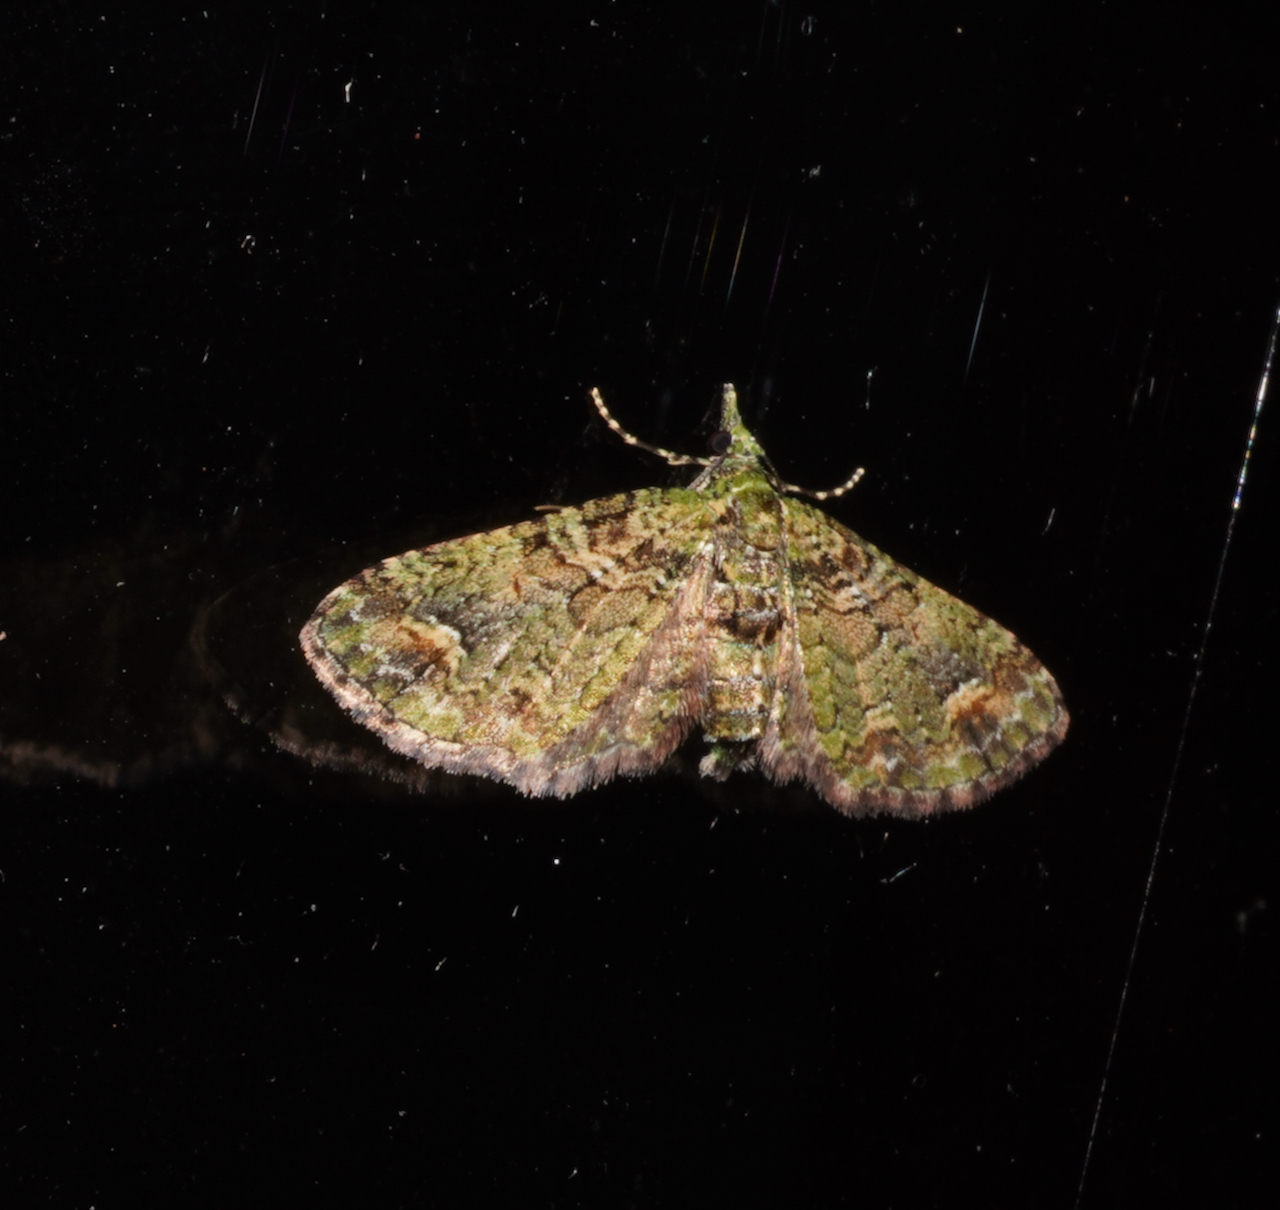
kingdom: Animalia
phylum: Arthropoda
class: Insecta
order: Lepidoptera
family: Geometridae
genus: Idaea
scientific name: Idaea mutanda
